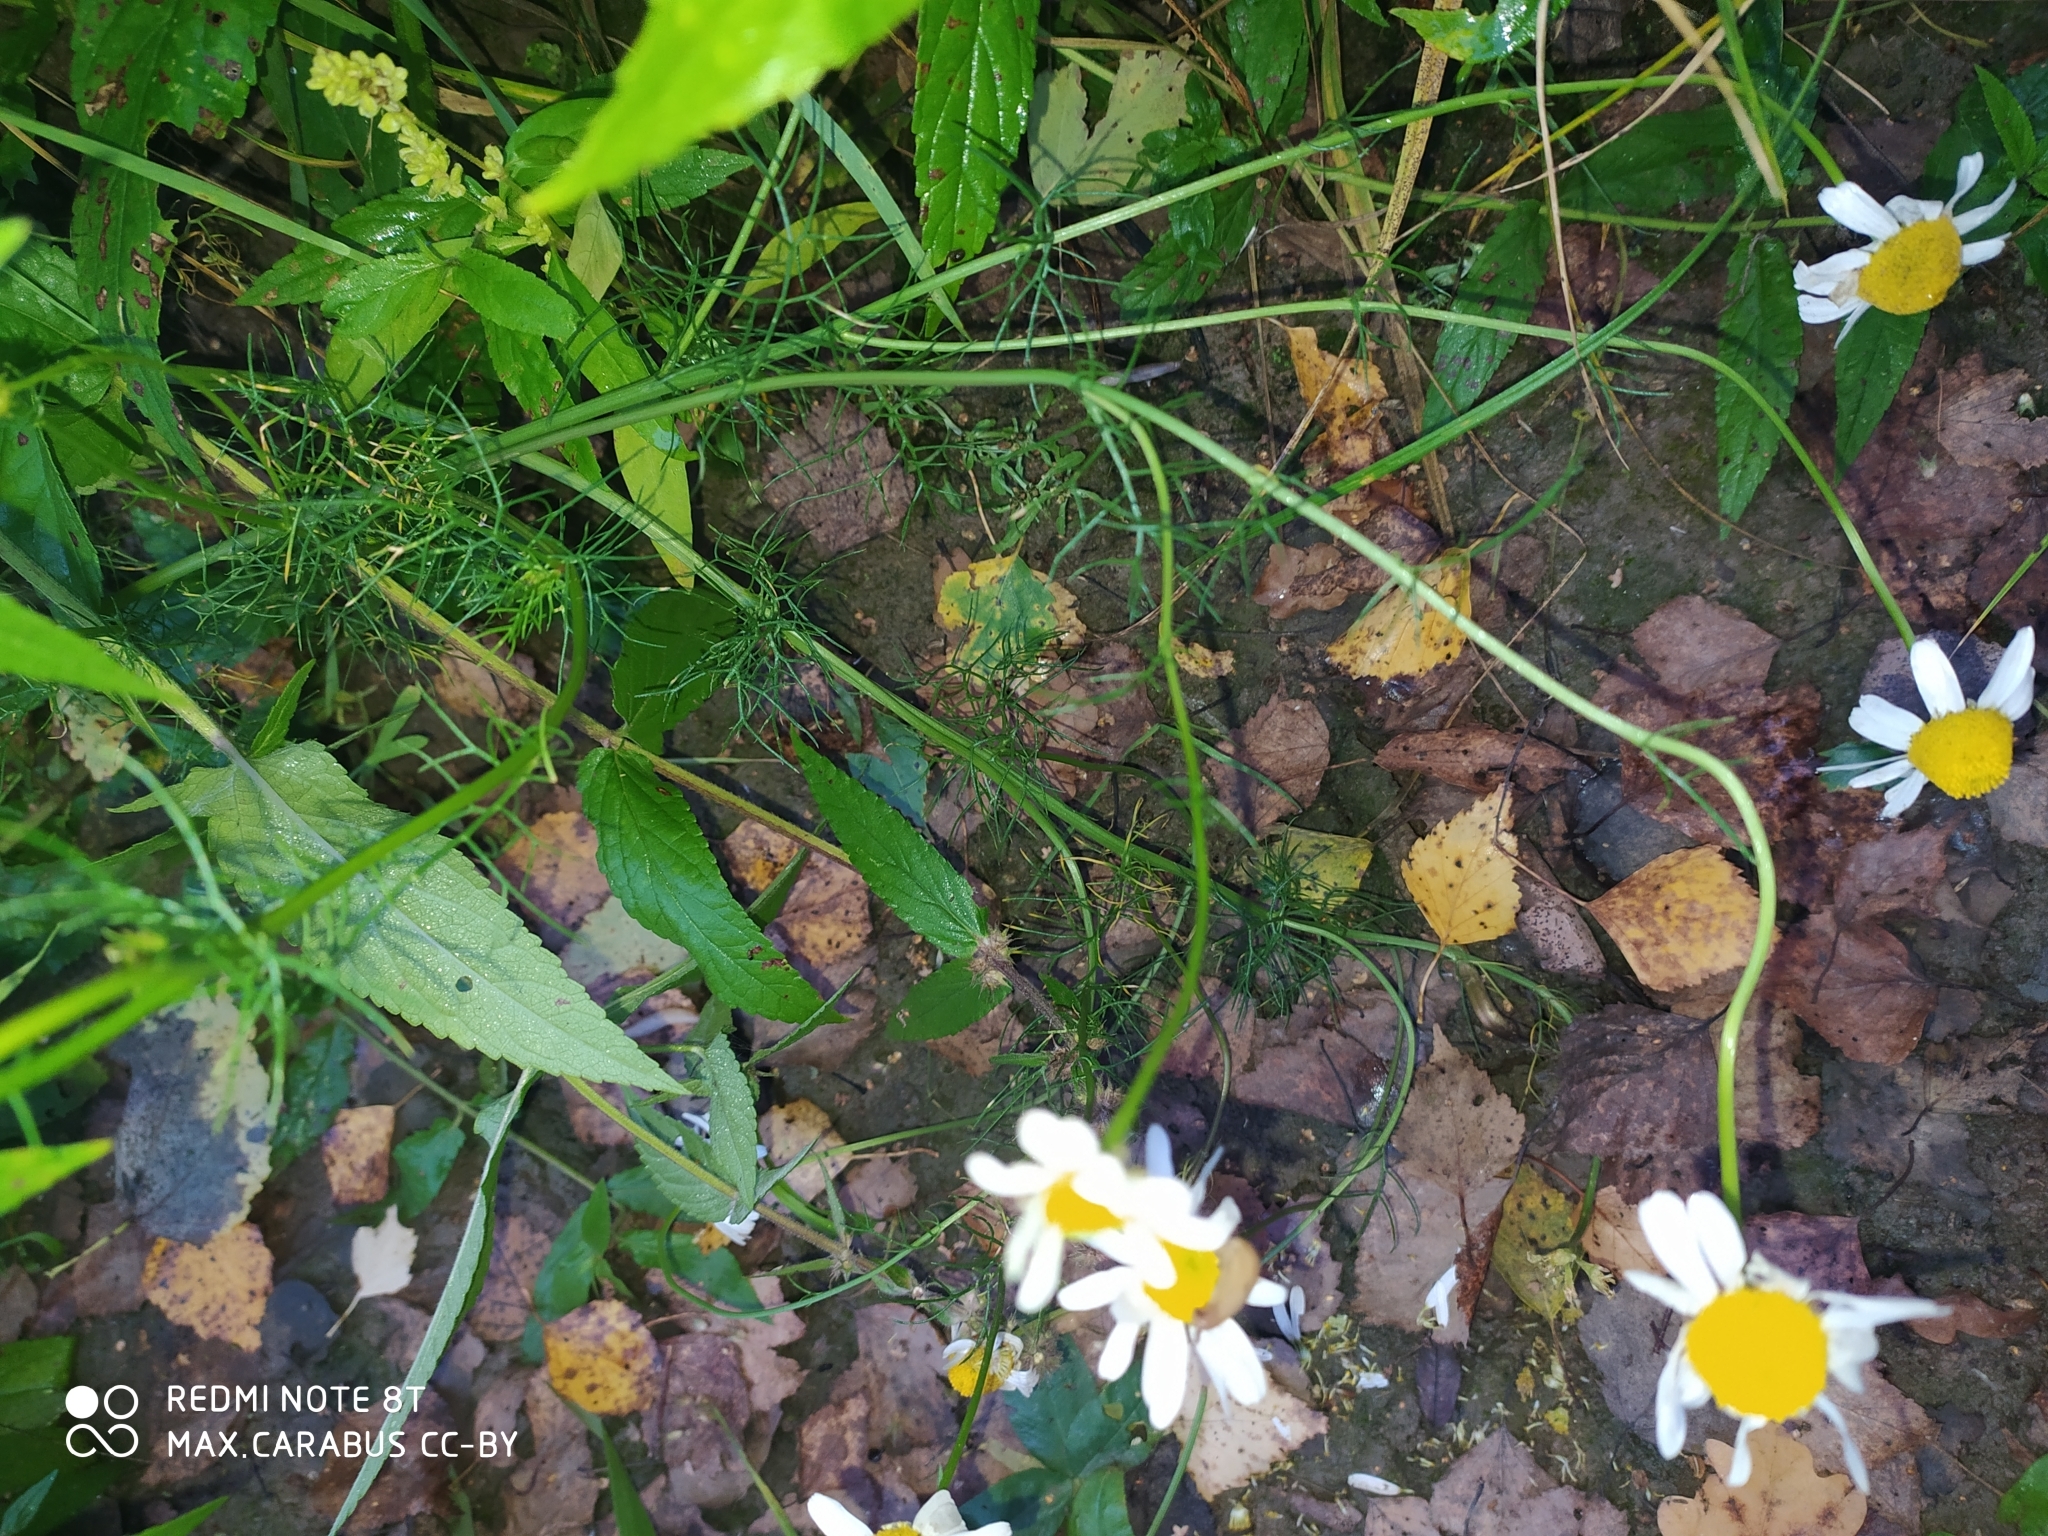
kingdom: Plantae
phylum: Tracheophyta
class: Magnoliopsida
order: Asterales
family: Asteraceae
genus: Tripleurospermum
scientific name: Tripleurospermum inodorum
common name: Scentless mayweed
